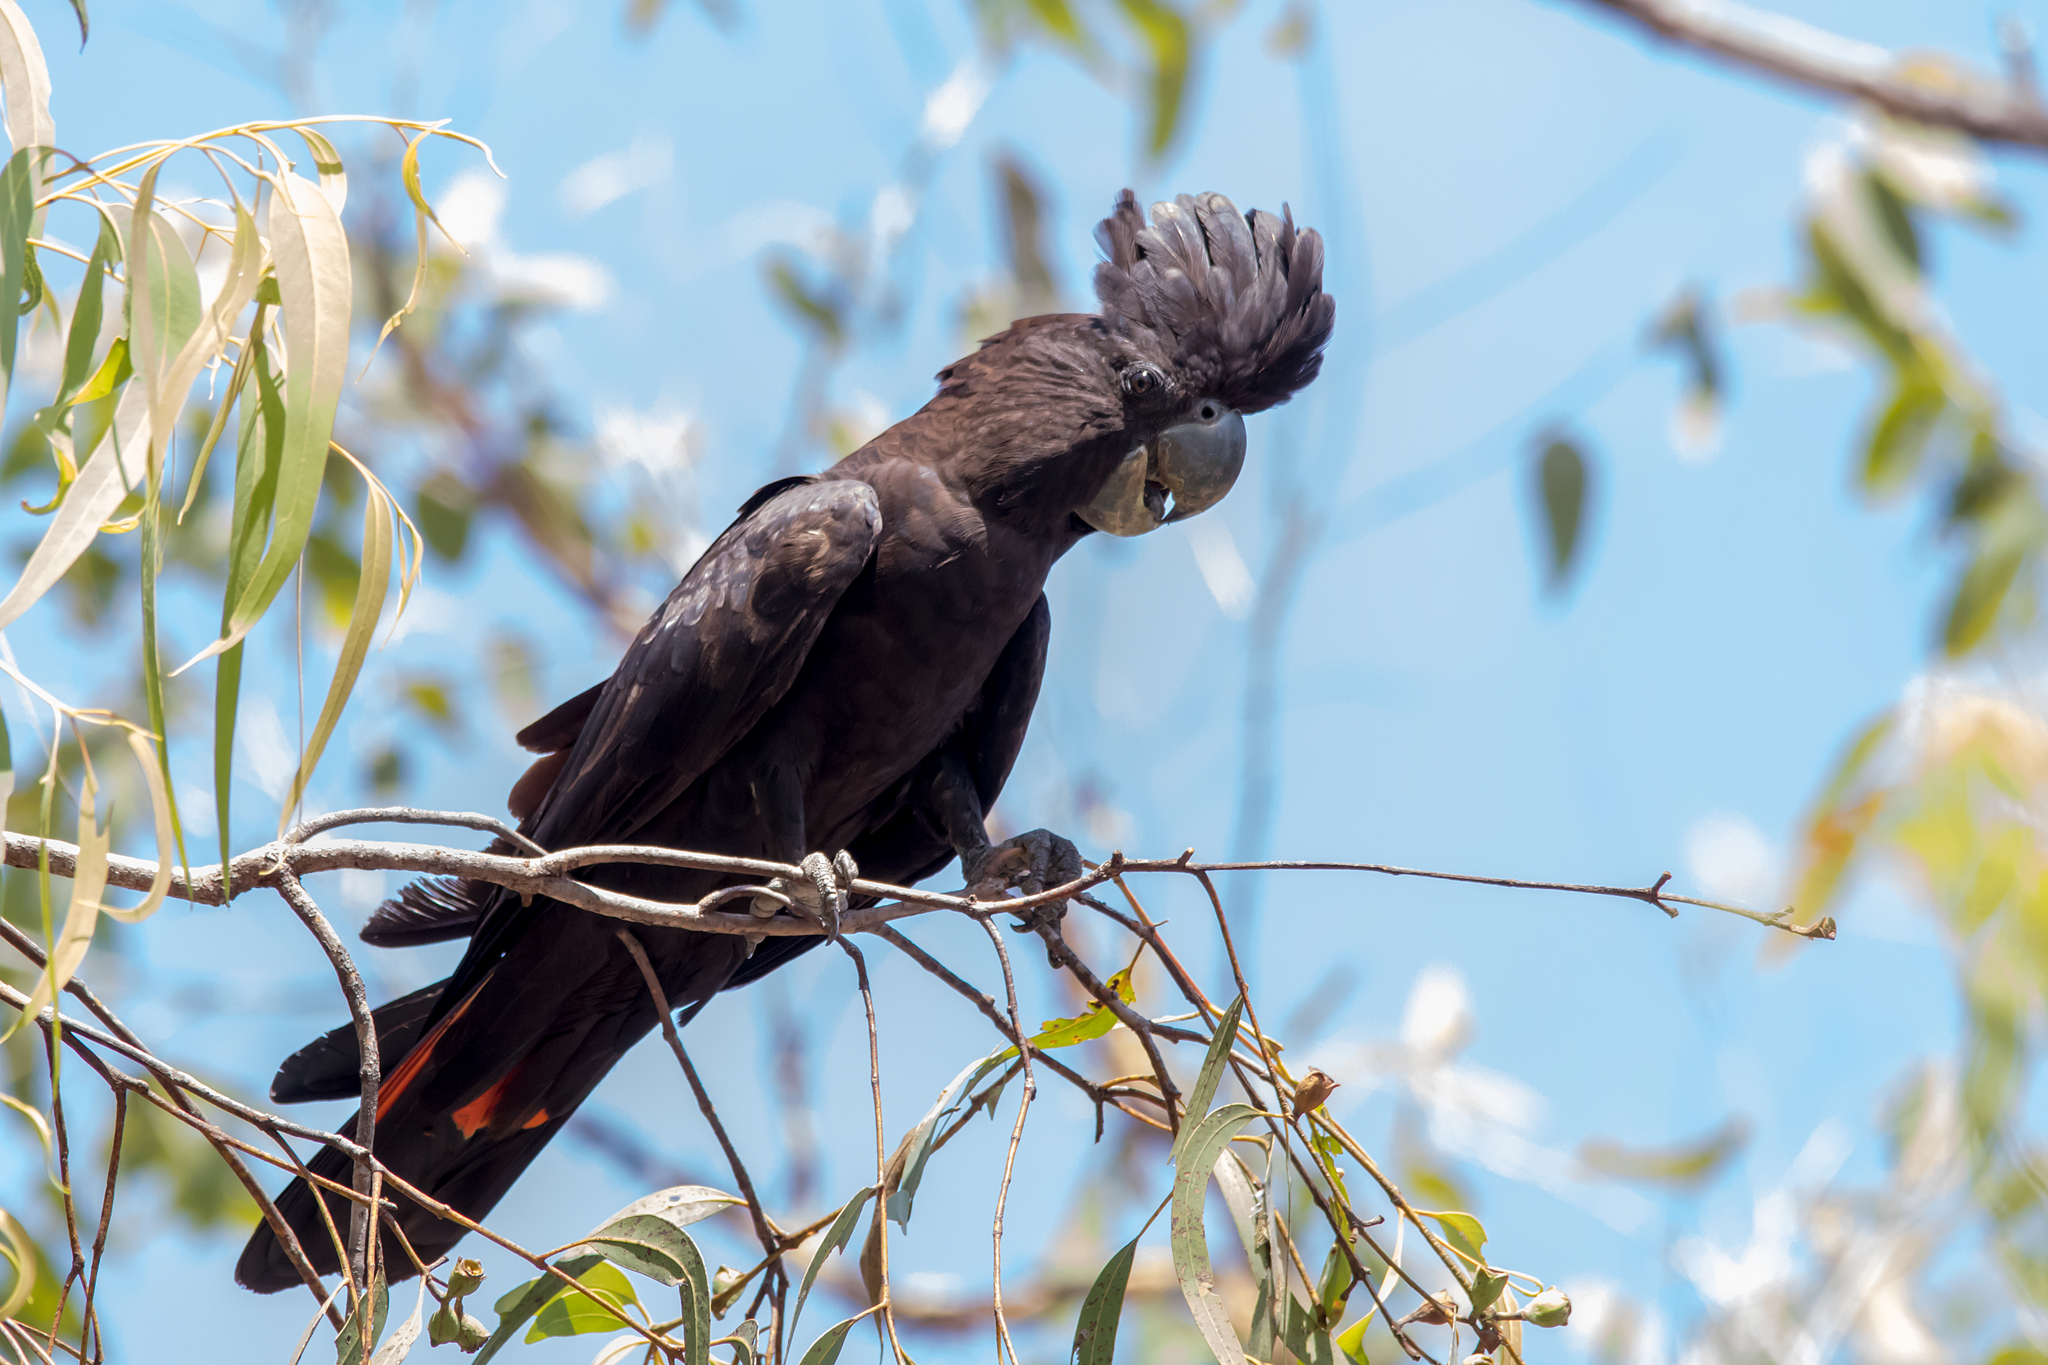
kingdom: Animalia
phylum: Chordata
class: Aves
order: Psittaciformes
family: Psittacidae
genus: Calyptorhynchus
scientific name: Calyptorhynchus banksii
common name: Red-tailed black cockatoo
